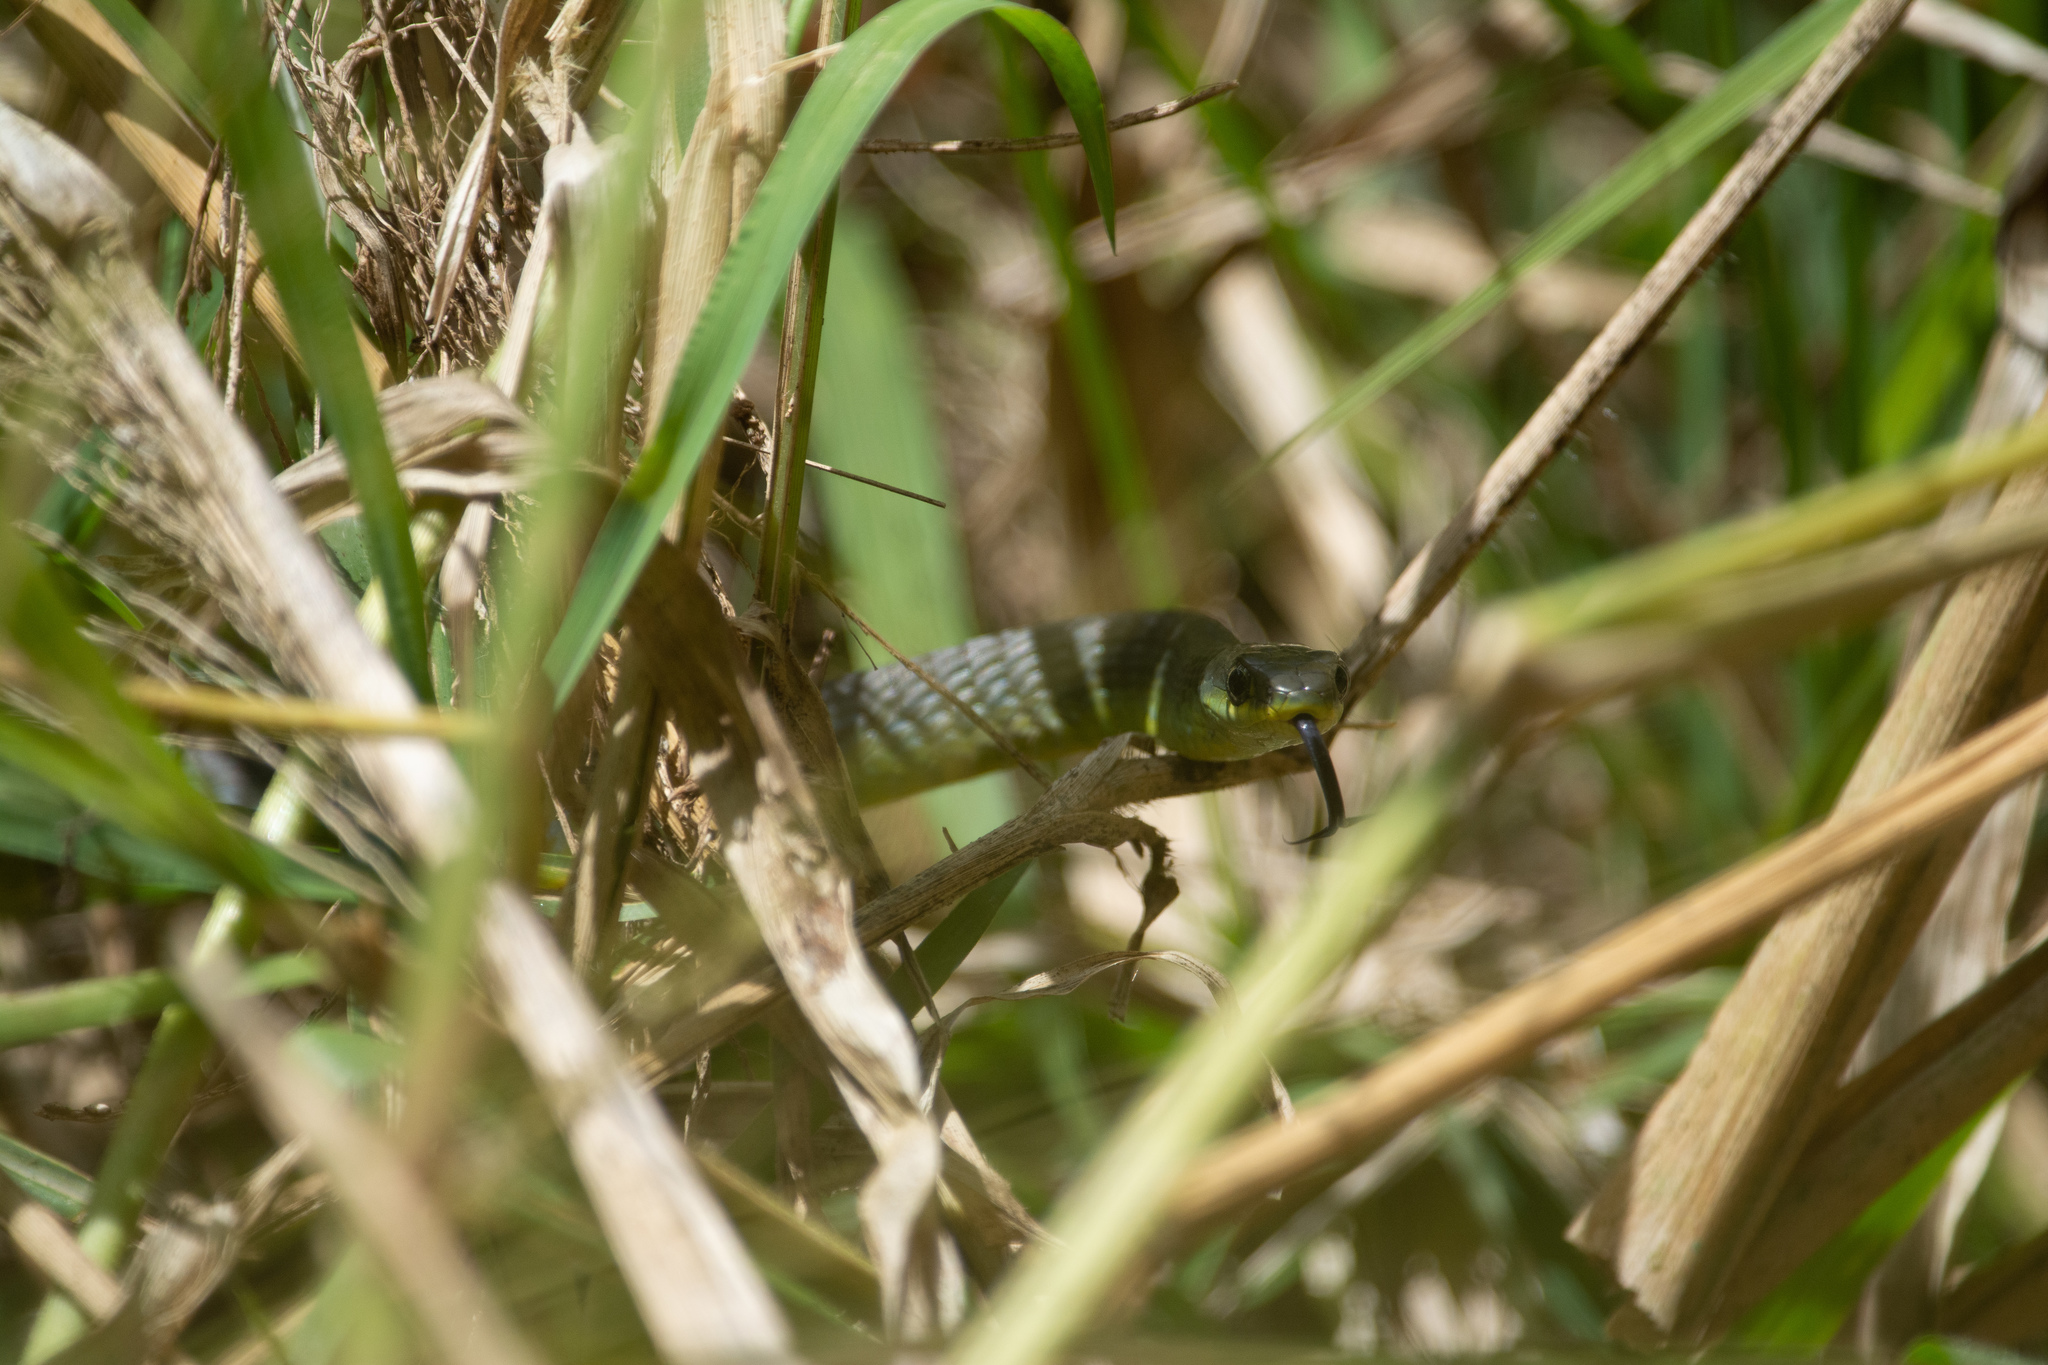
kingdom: Animalia
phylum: Chordata
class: Squamata
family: Colubridae
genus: Dendrelaphis
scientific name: Dendrelaphis punctulatus
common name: Common tree snake
